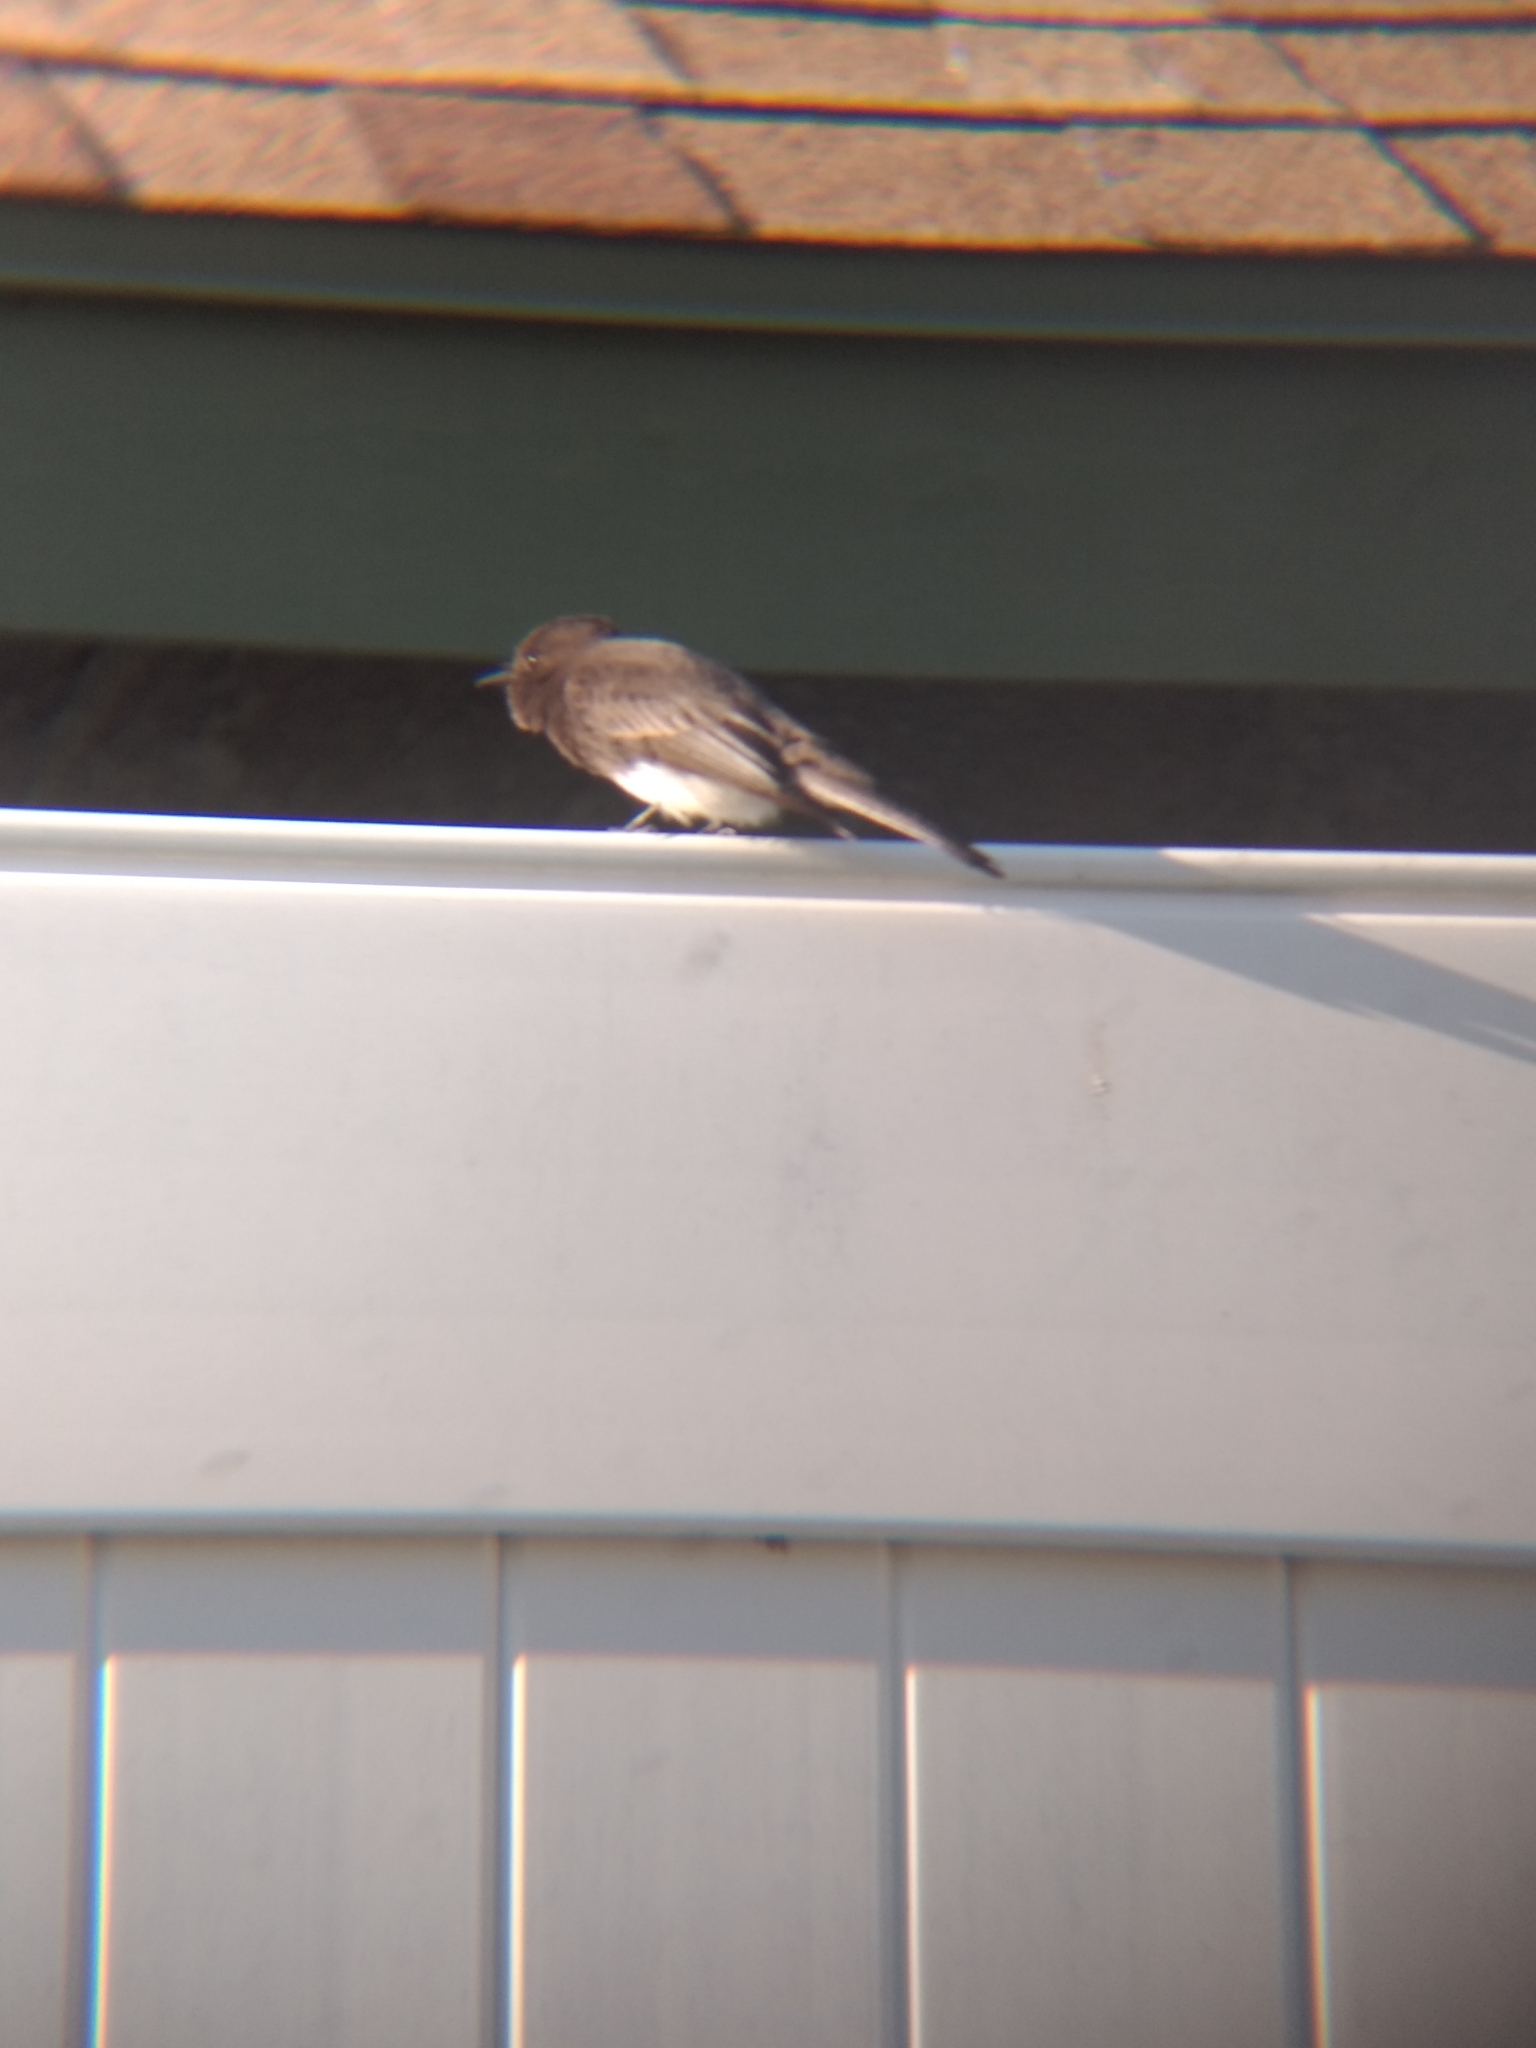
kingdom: Animalia
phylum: Chordata
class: Aves
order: Passeriformes
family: Tyrannidae
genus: Sayornis
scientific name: Sayornis nigricans
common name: Black phoebe
